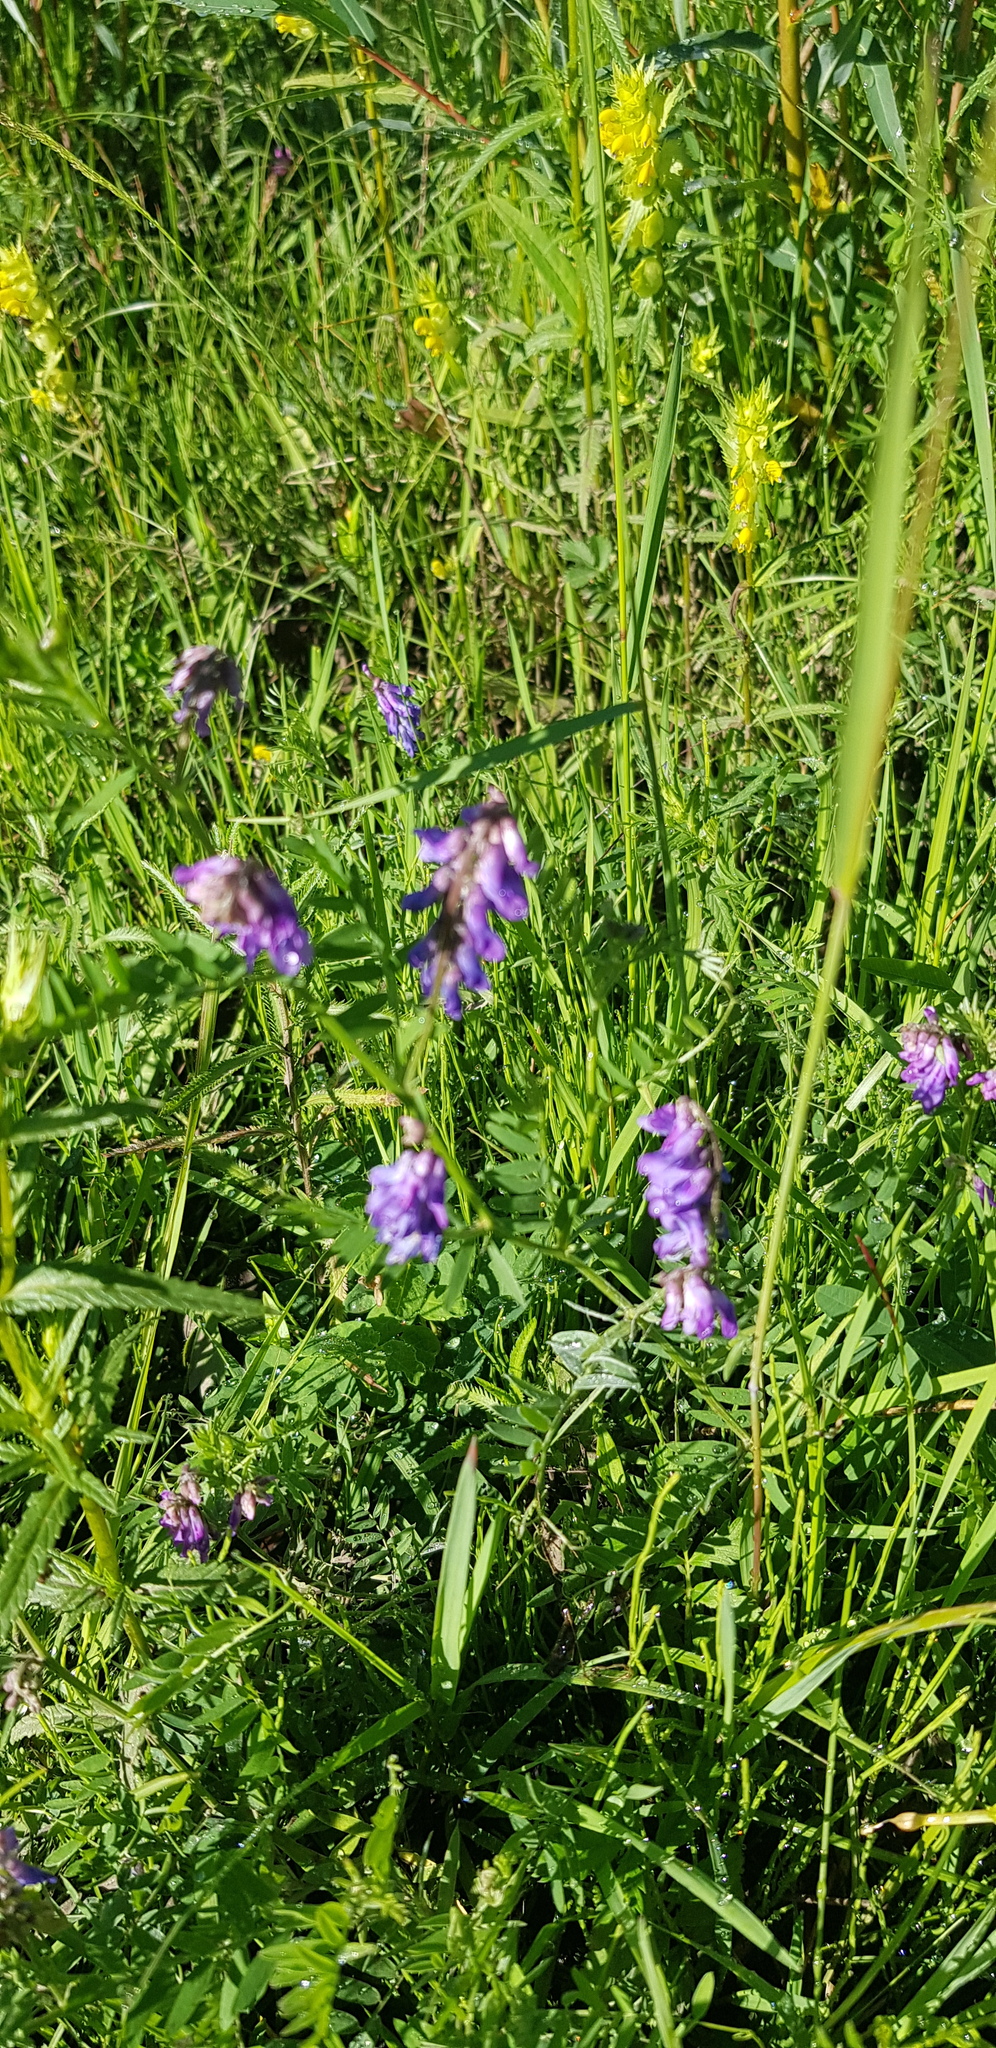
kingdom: Plantae
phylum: Tracheophyta
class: Magnoliopsida
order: Fabales
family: Fabaceae
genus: Vicia
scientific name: Vicia cracca
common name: Bird vetch
